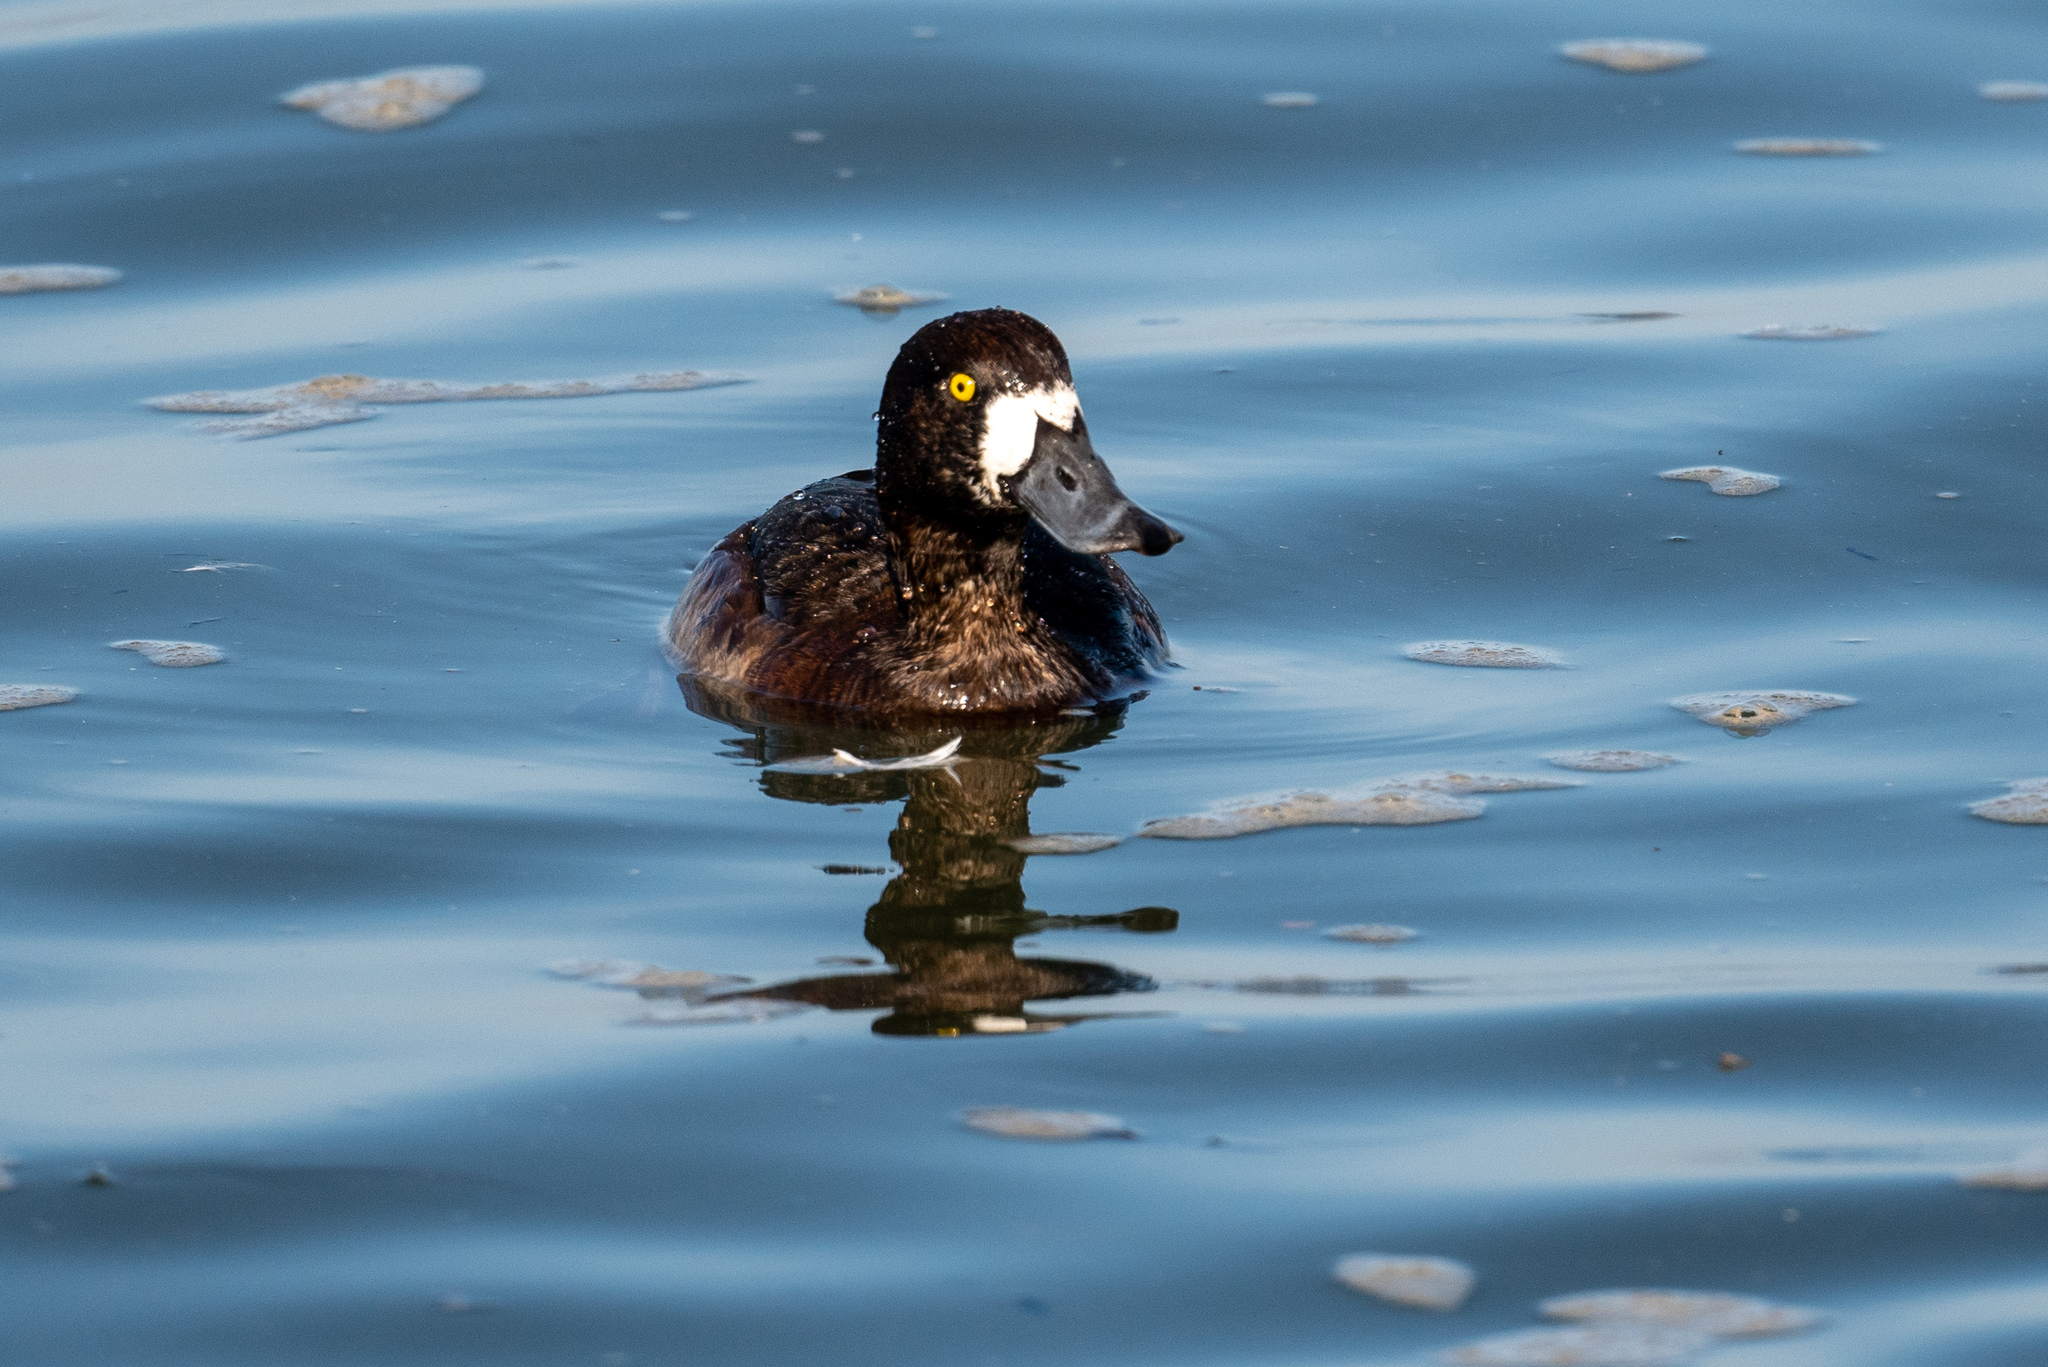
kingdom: Animalia
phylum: Chordata
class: Aves
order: Anseriformes
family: Anatidae
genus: Aythya
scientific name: Aythya marila
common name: Greater scaup
